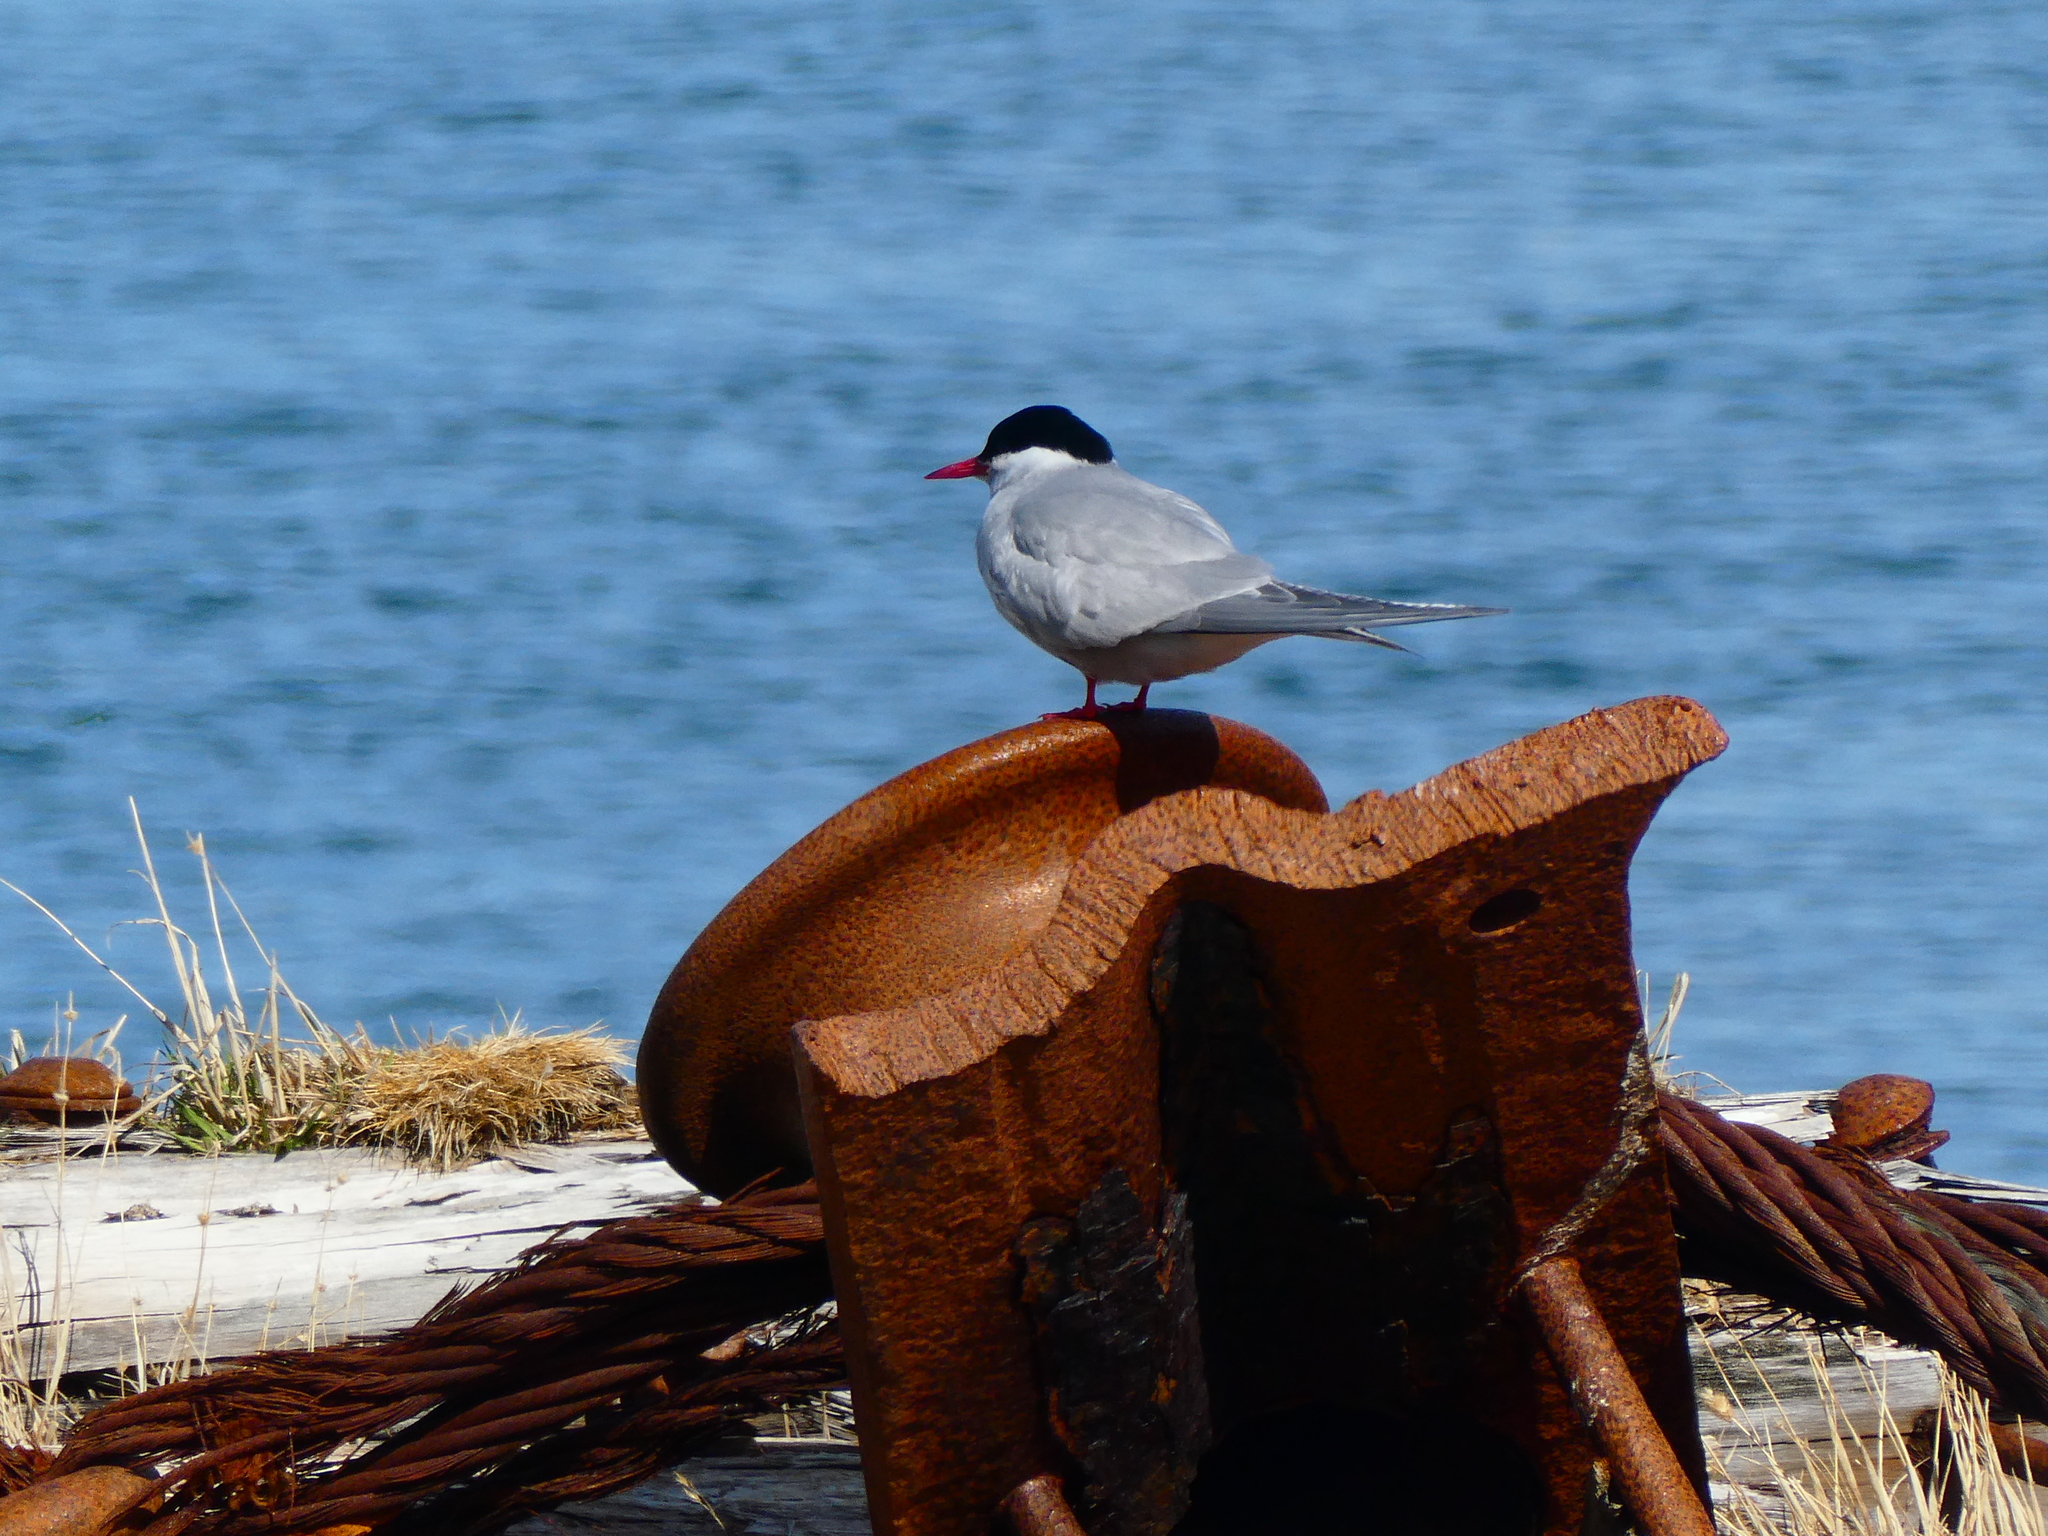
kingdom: Animalia
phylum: Chordata
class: Aves
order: Charadriiformes
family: Laridae
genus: Sterna
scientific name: Sterna vittata
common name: Antarctic tern
